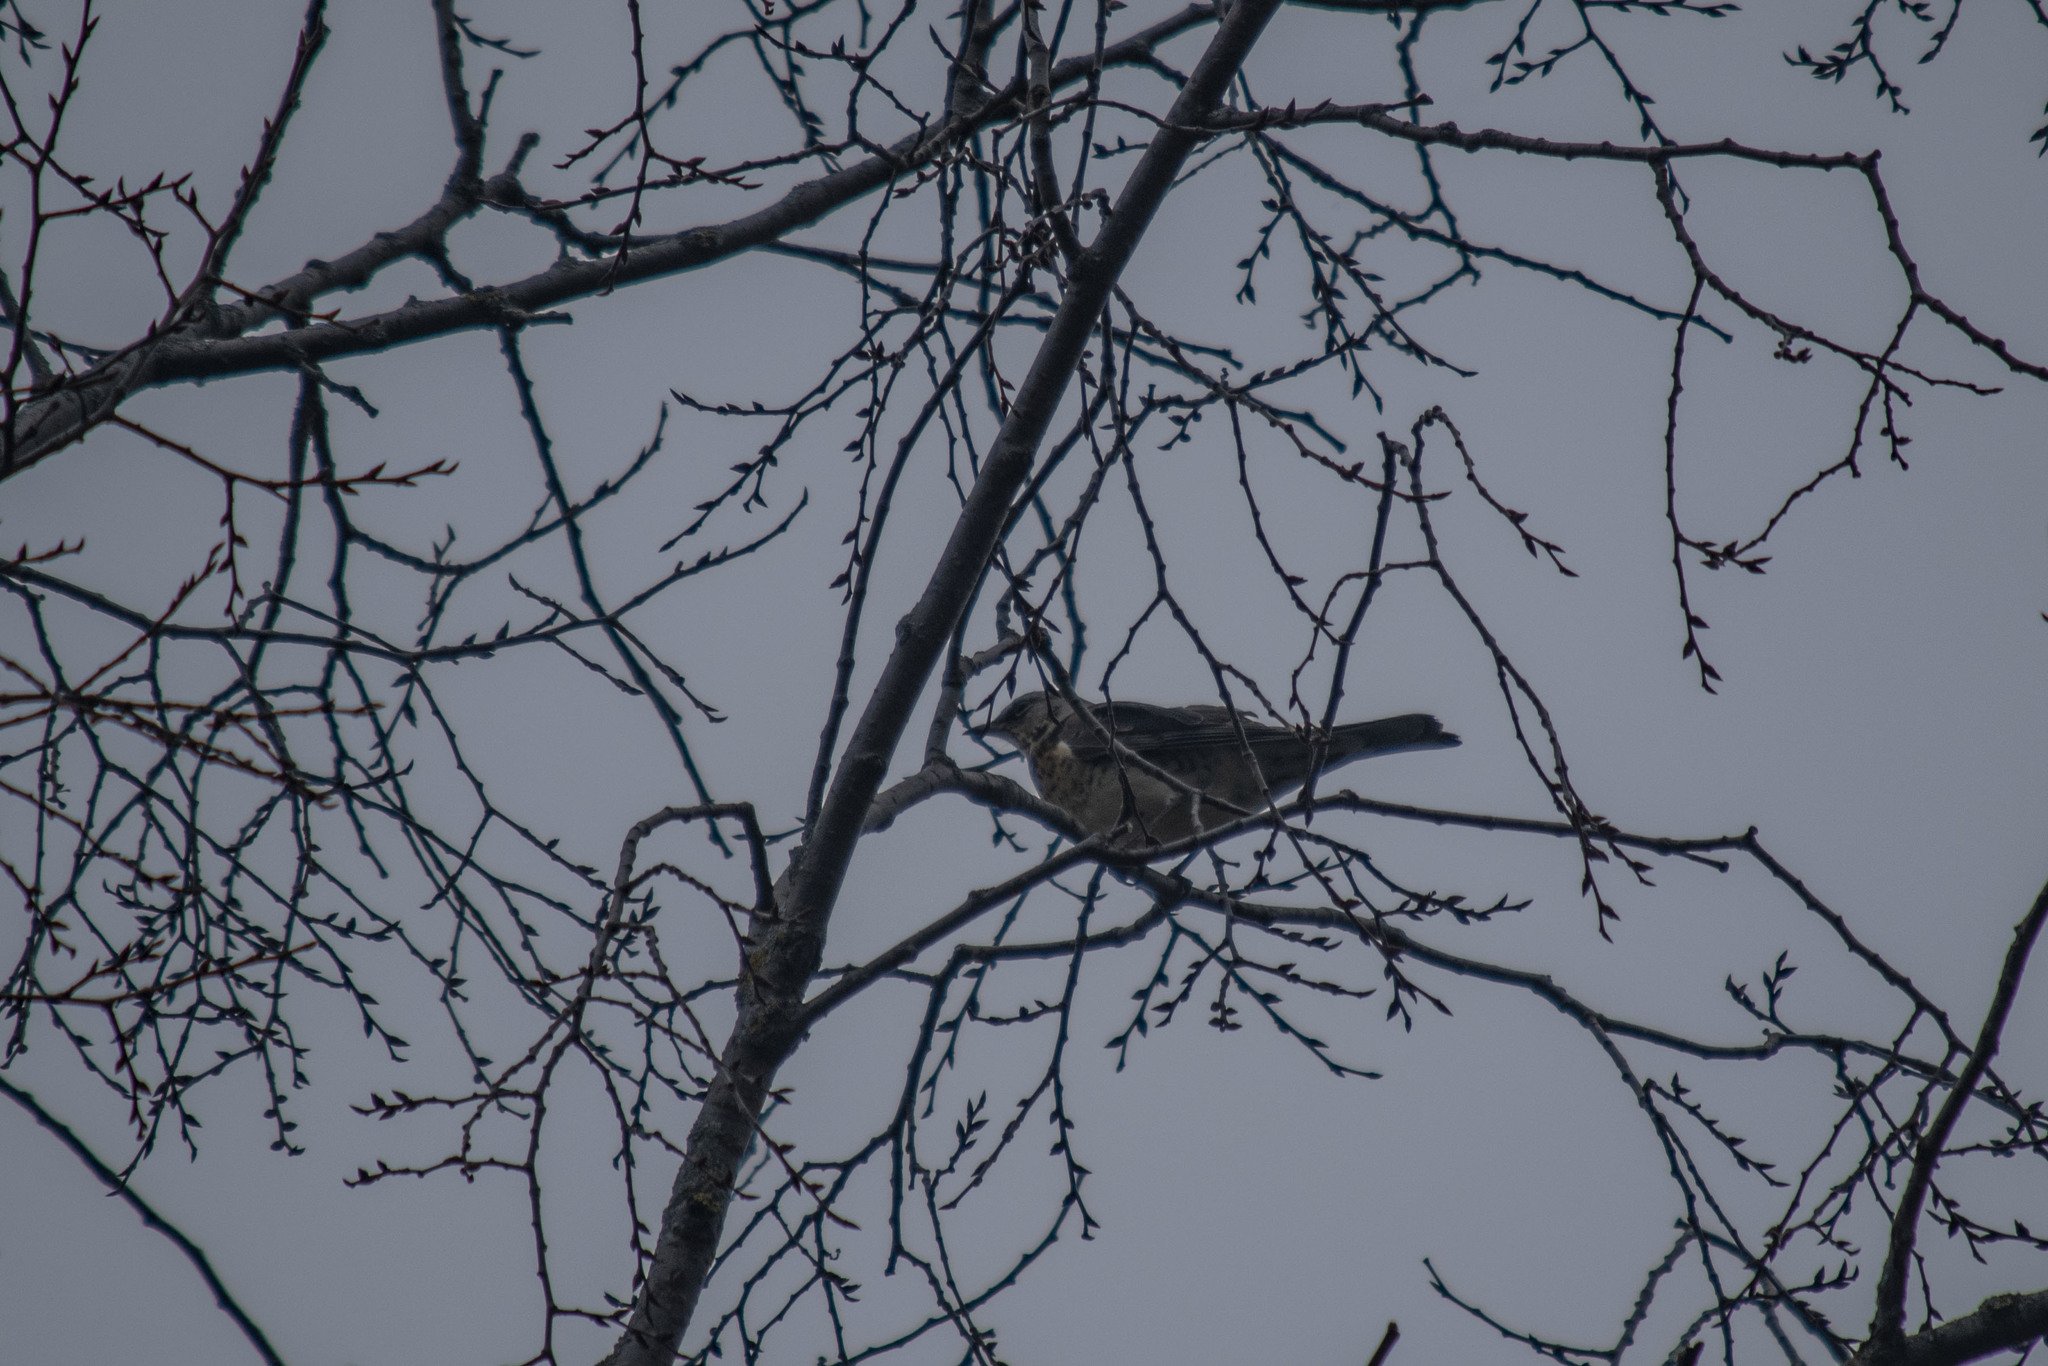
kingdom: Animalia
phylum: Chordata
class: Aves
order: Passeriformes
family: Turdidae
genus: Turdus
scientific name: Turdus pilaris
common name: Fieldfare
